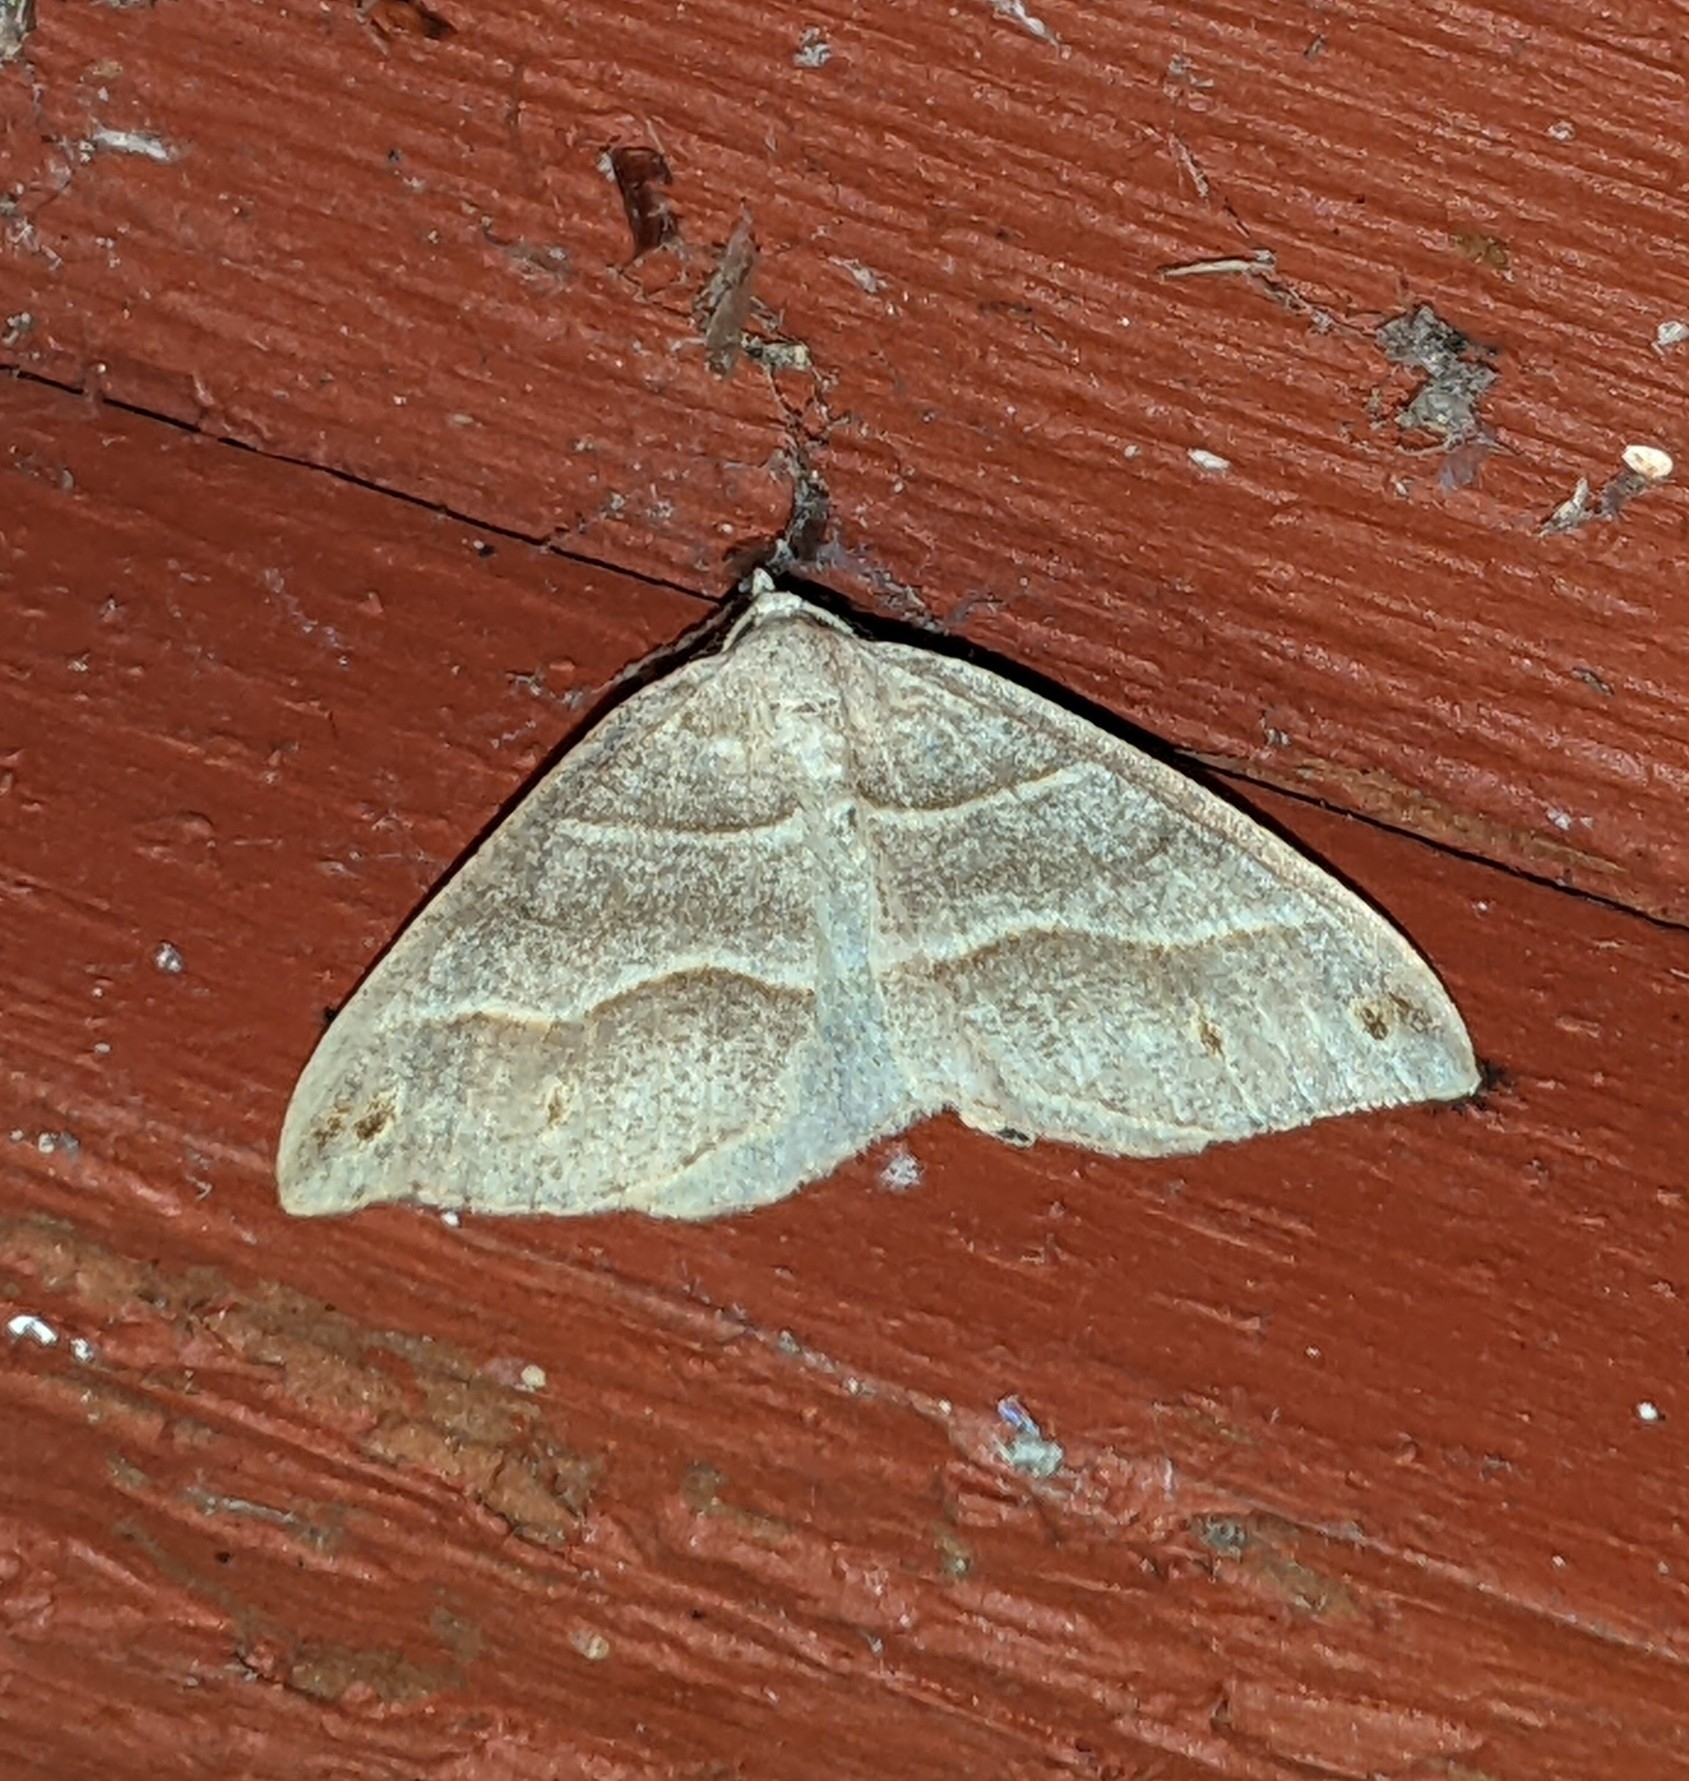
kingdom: Animalia
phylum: Arthropoda
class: Insecta
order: Lepidoptera
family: Geometridae
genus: Macaria
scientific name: Macaria lorquinaria
